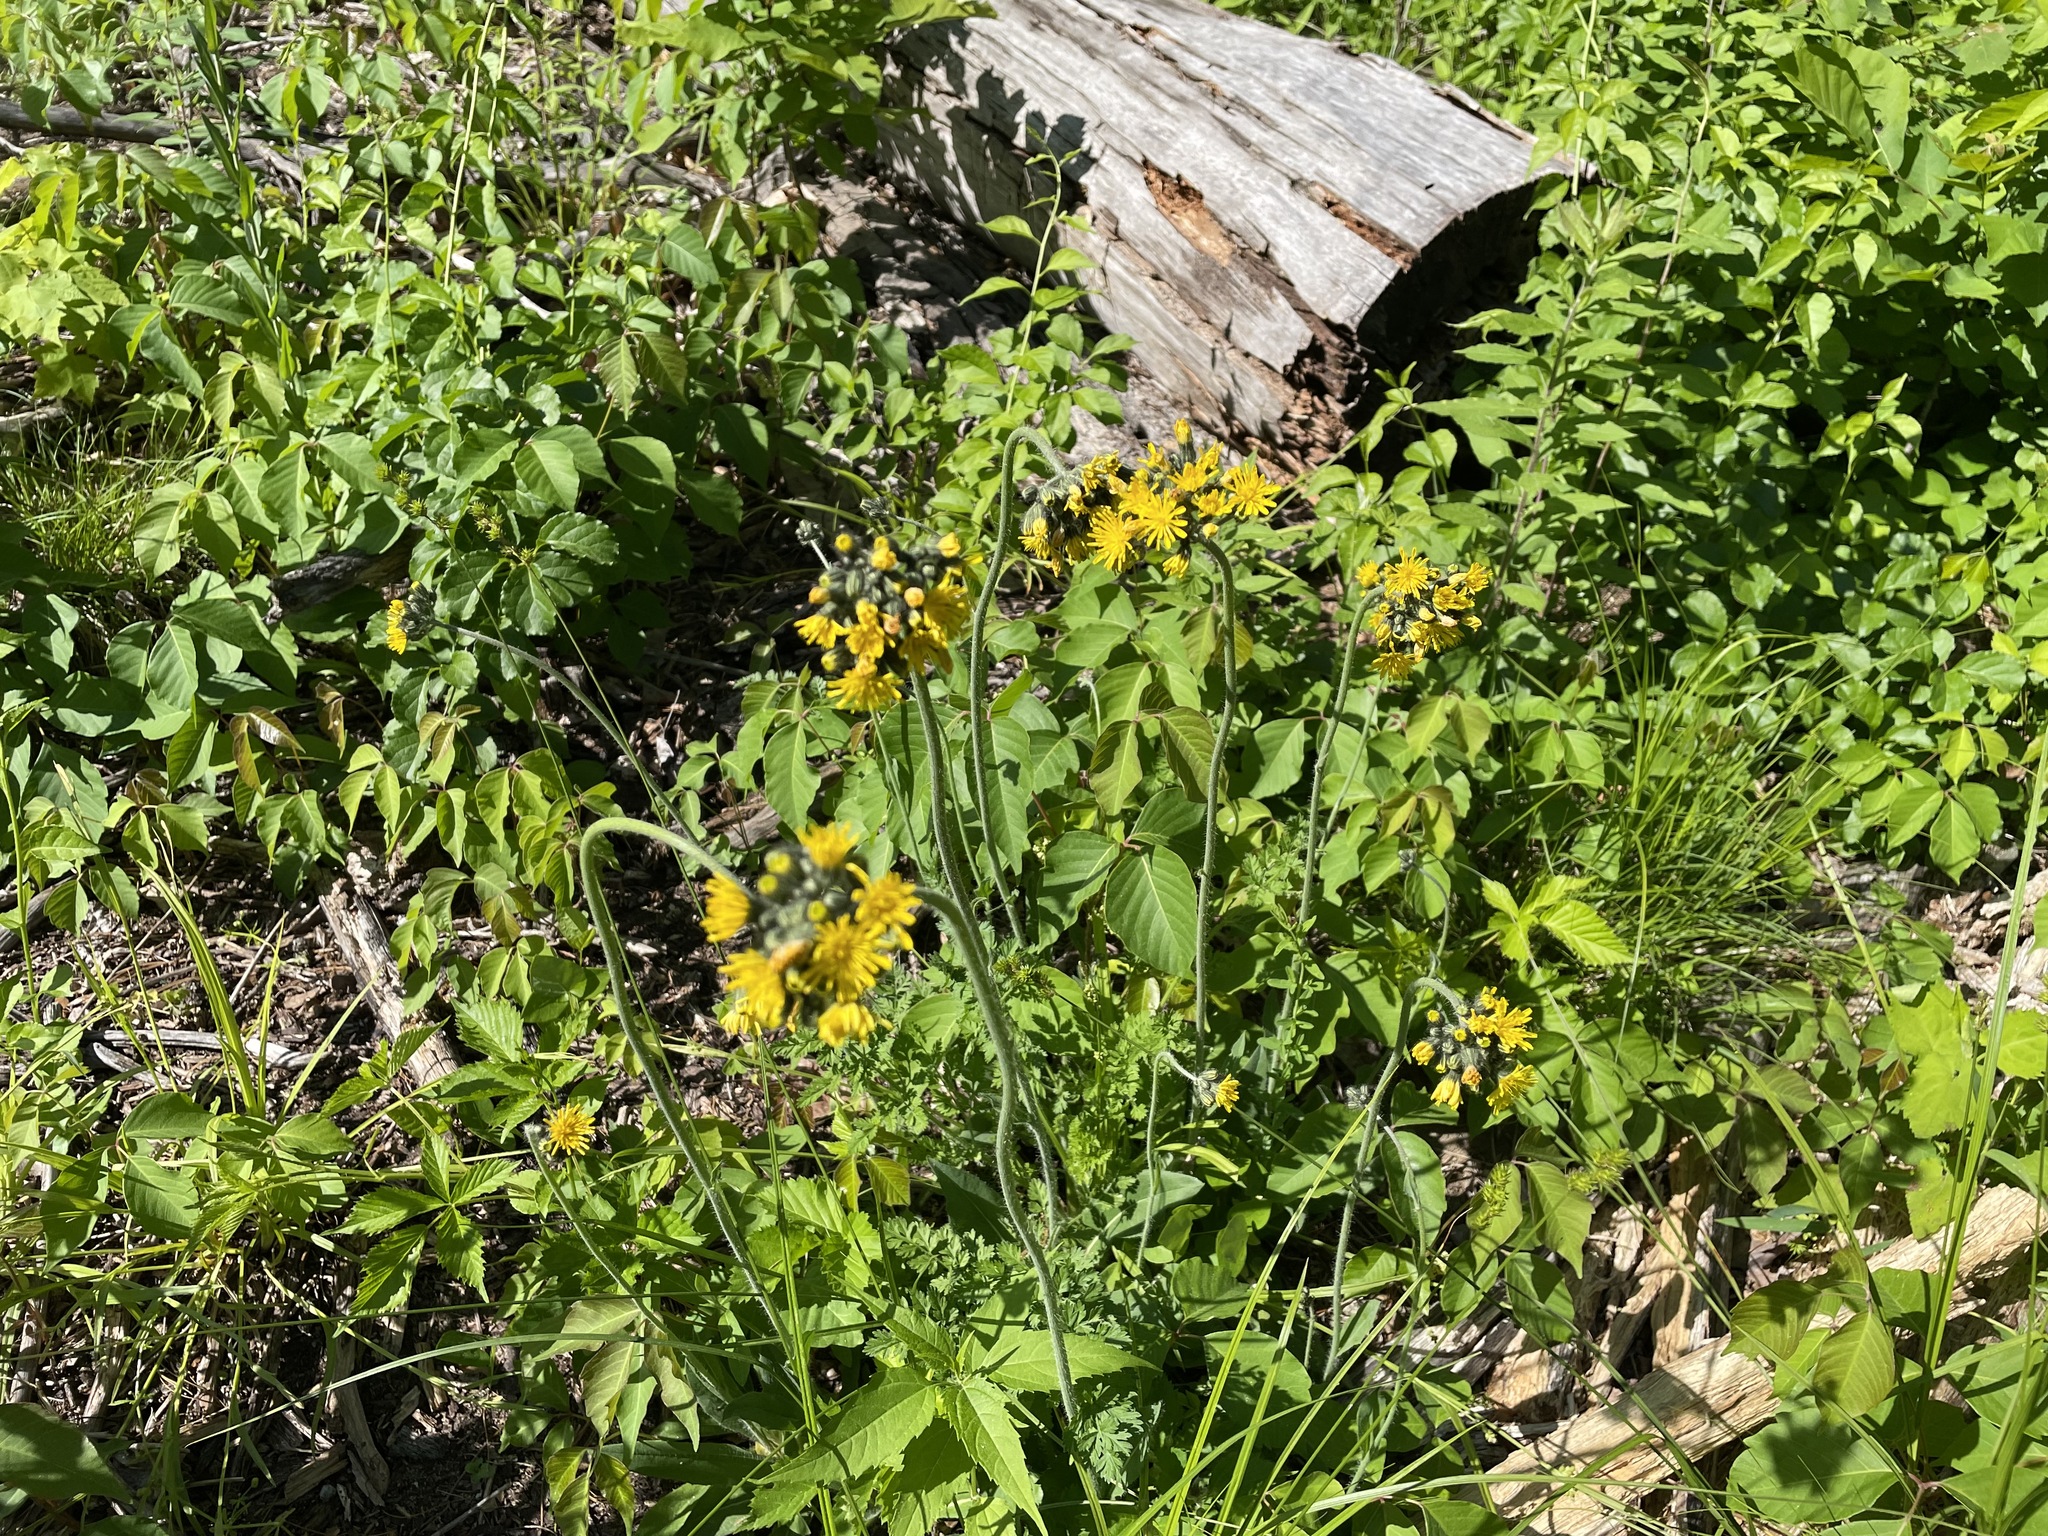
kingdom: Plantae
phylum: Tracheophyta
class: Magnoliopsida
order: Asterales
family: Asteraceae
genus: Pilosella
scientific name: Pilosella caespitosa
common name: Yellow fox-and-cubs
